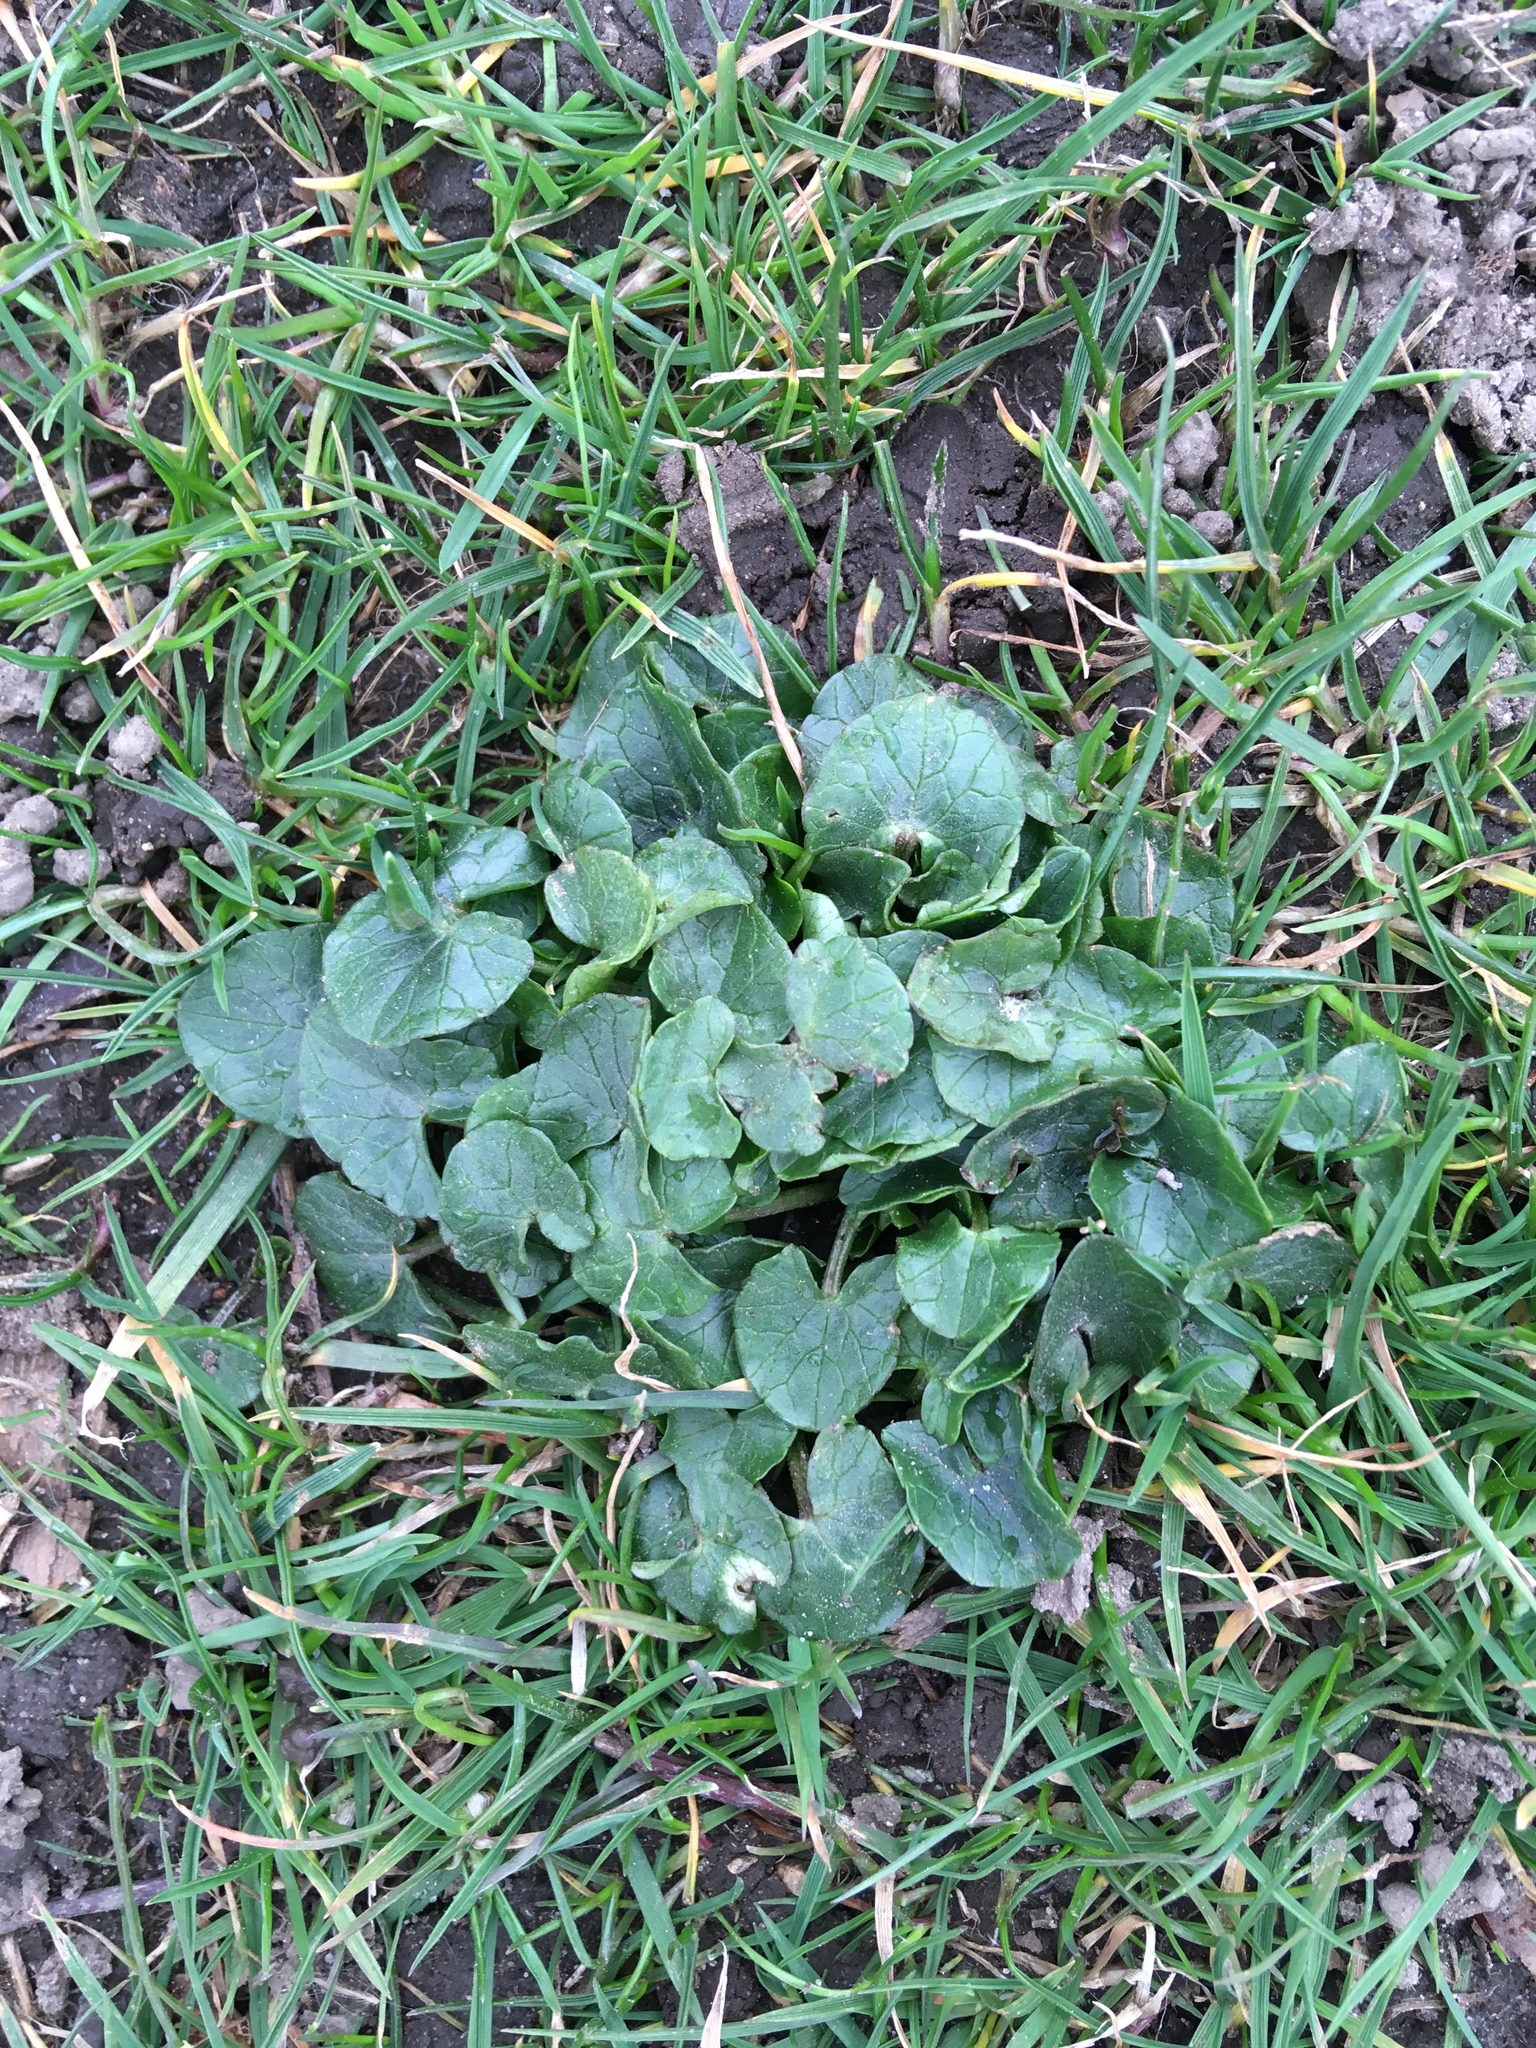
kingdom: Plantae
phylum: Tracheophyta
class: Magnoliopsida
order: Ranunculales
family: Ranunculaceae
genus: Ficaria
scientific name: Ficaria verna
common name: Lesser celandine
